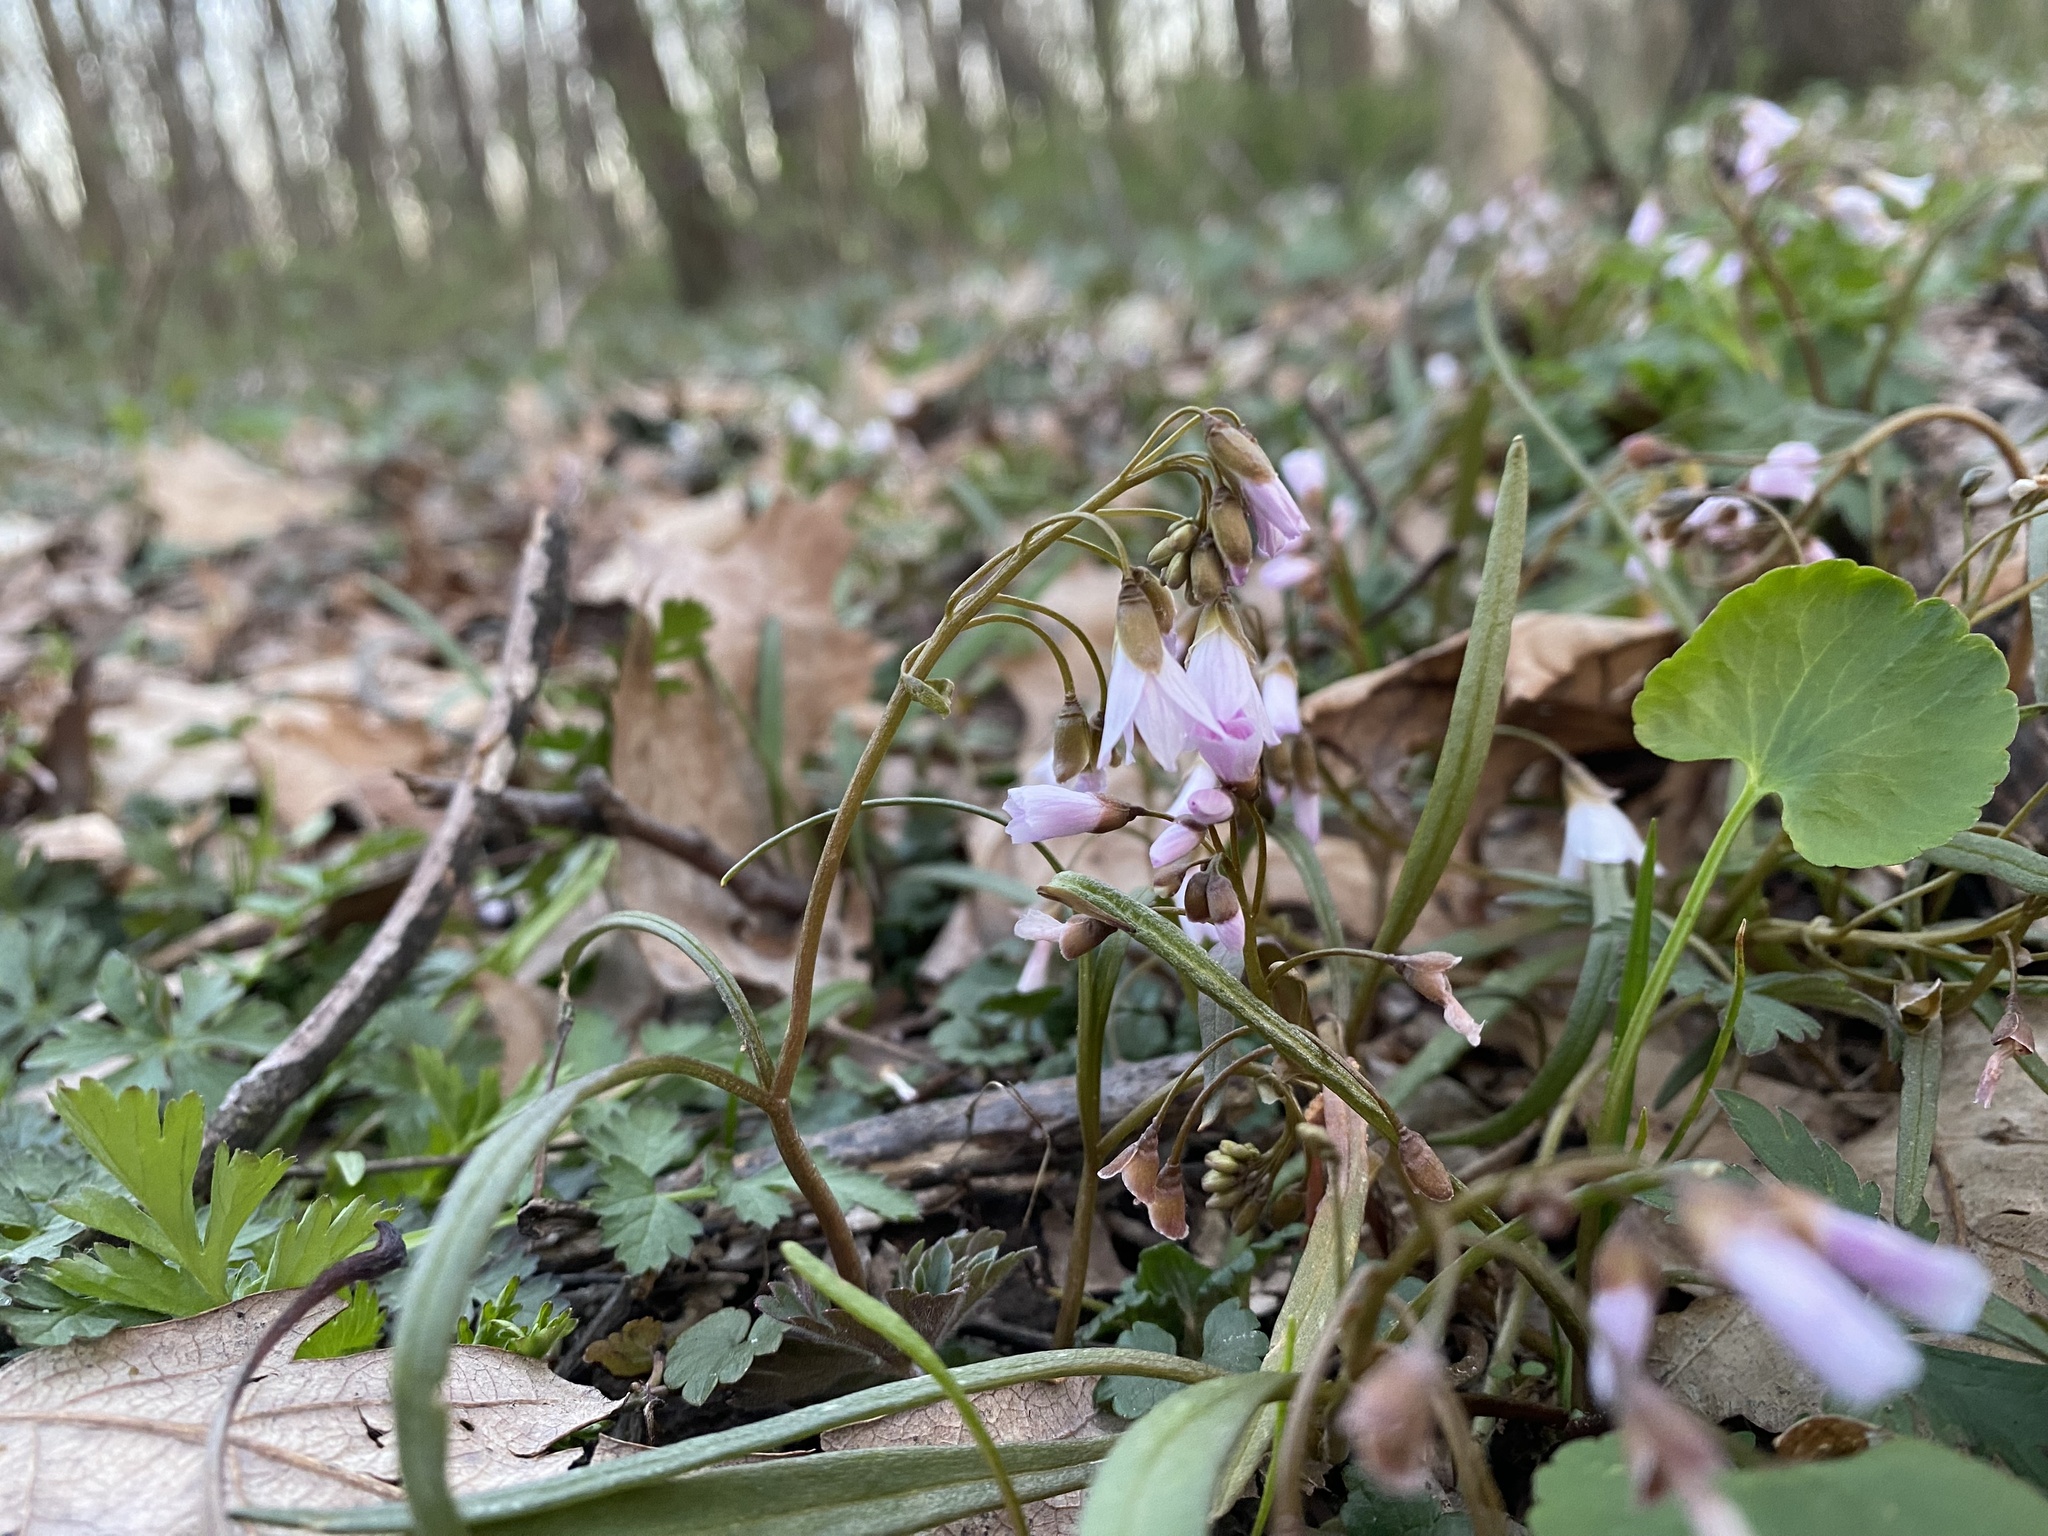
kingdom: Plantae
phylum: Tracheophyta
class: Magnoliopsida
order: Caryophyllales
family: Montiaceae
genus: Claytonia
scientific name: Claytonia virginica
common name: Virginia springbeauty
